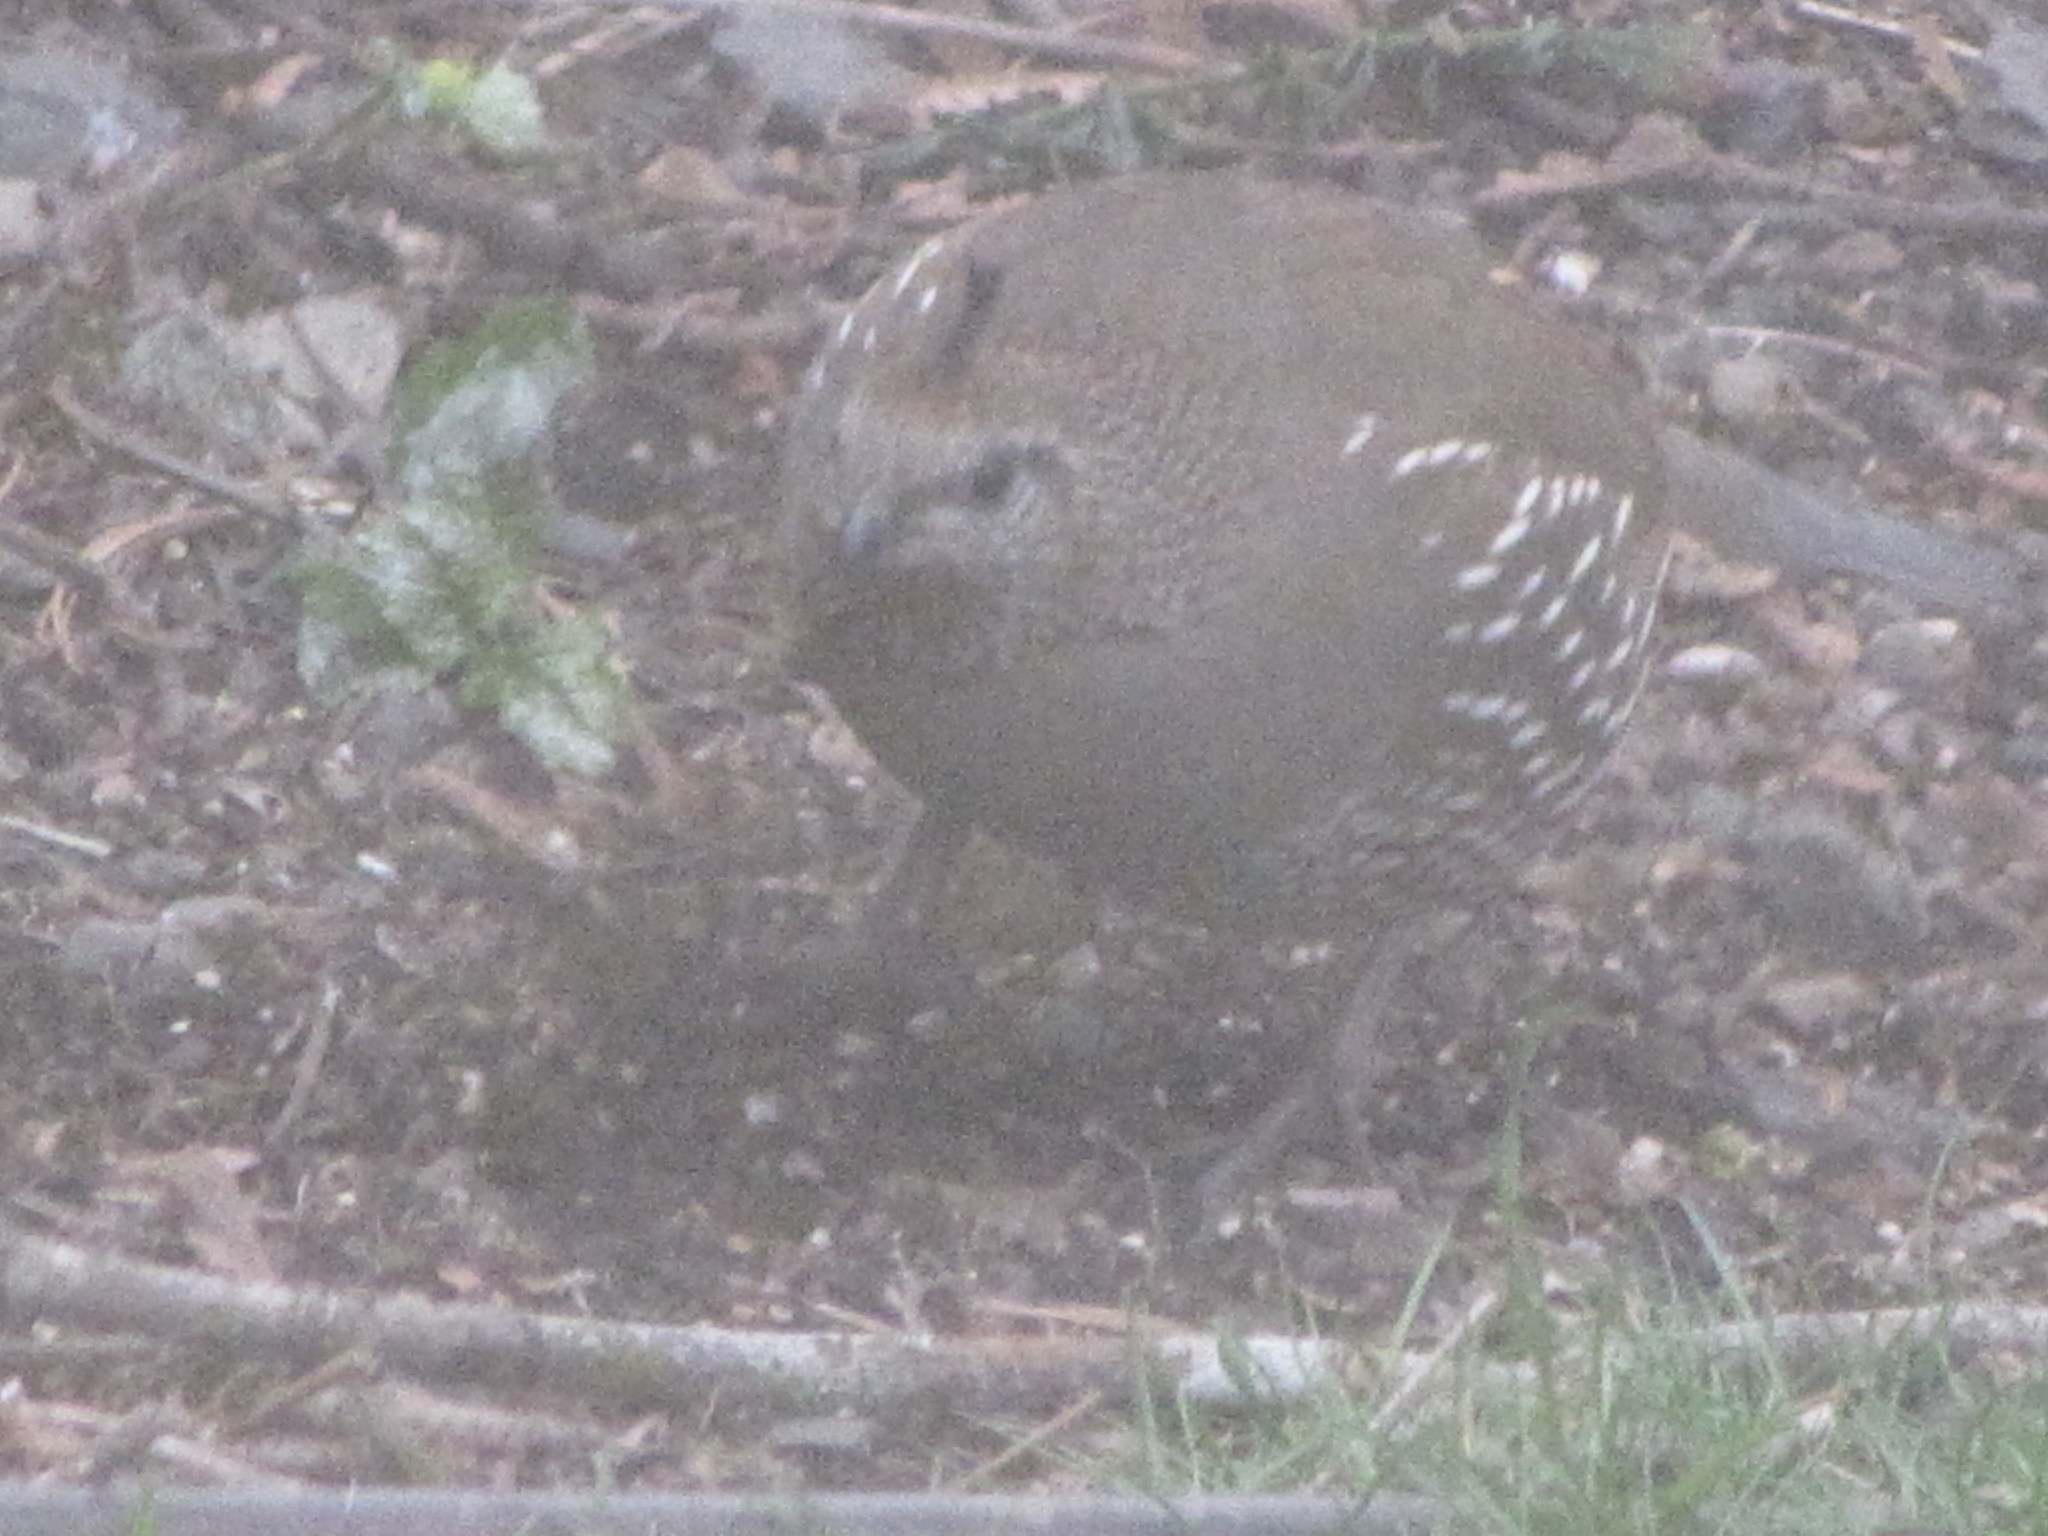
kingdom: Animalia
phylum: Chordata
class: Aves
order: Galliformes
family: Odontophoridae
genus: Callipepla
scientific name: Callipepla californica
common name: California quail
